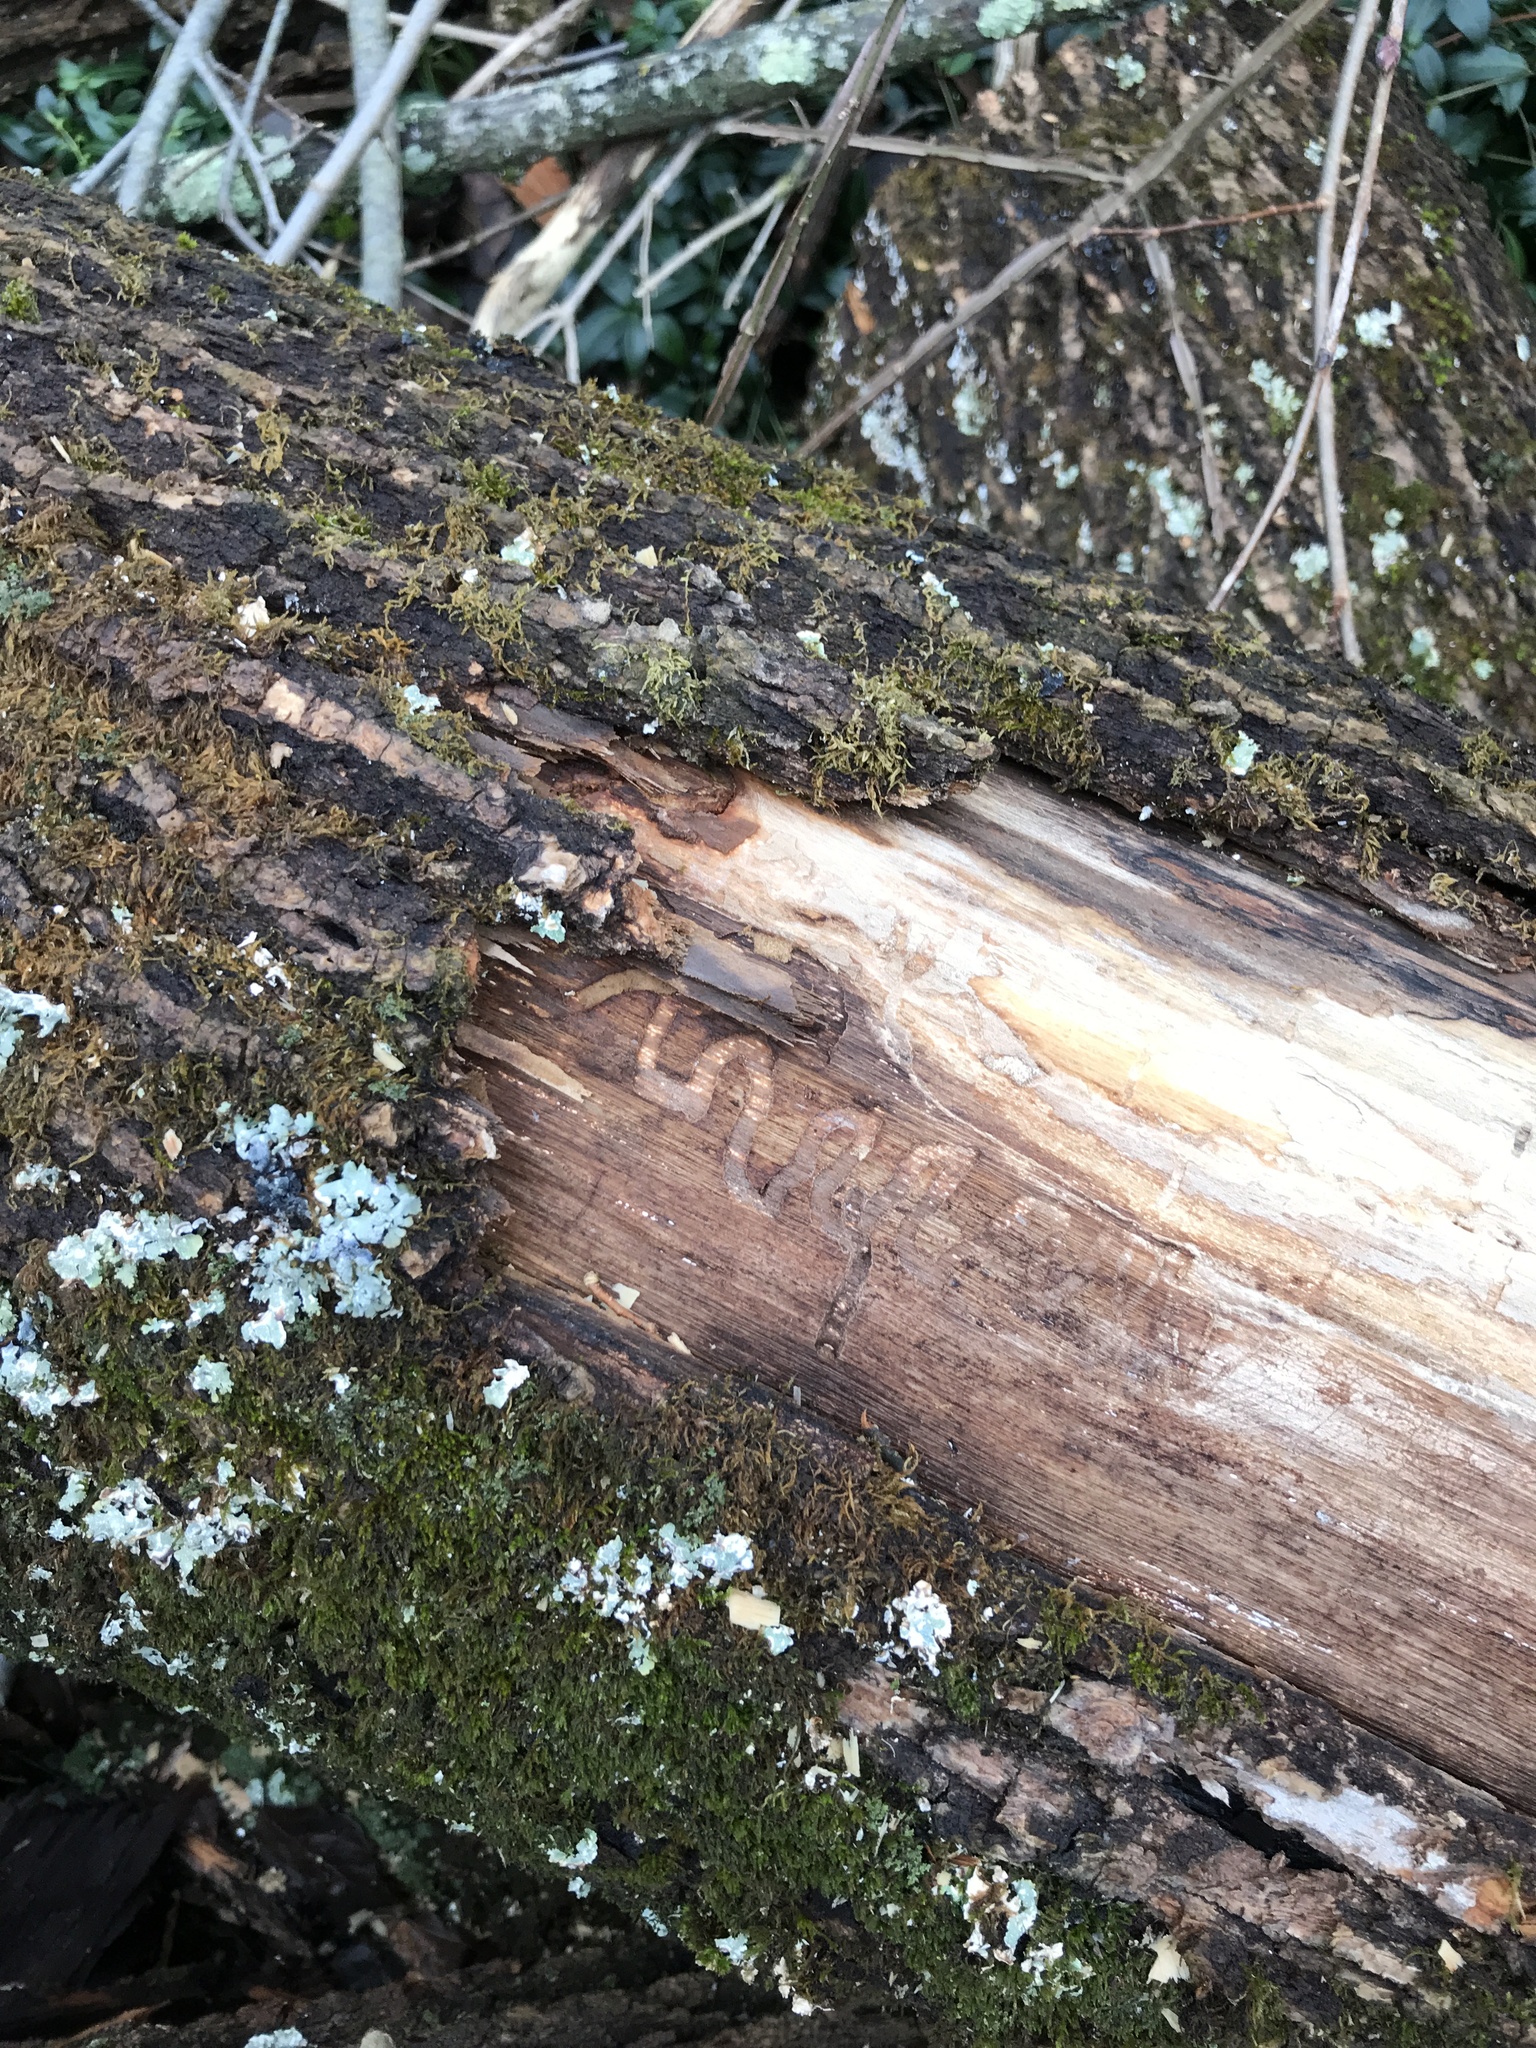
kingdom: Animalia
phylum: Arthropoda
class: Insecta
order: Coleoptera
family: Buprestidae
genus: Agrilus
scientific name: Agrilus planipennis
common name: Emerald ash borer
